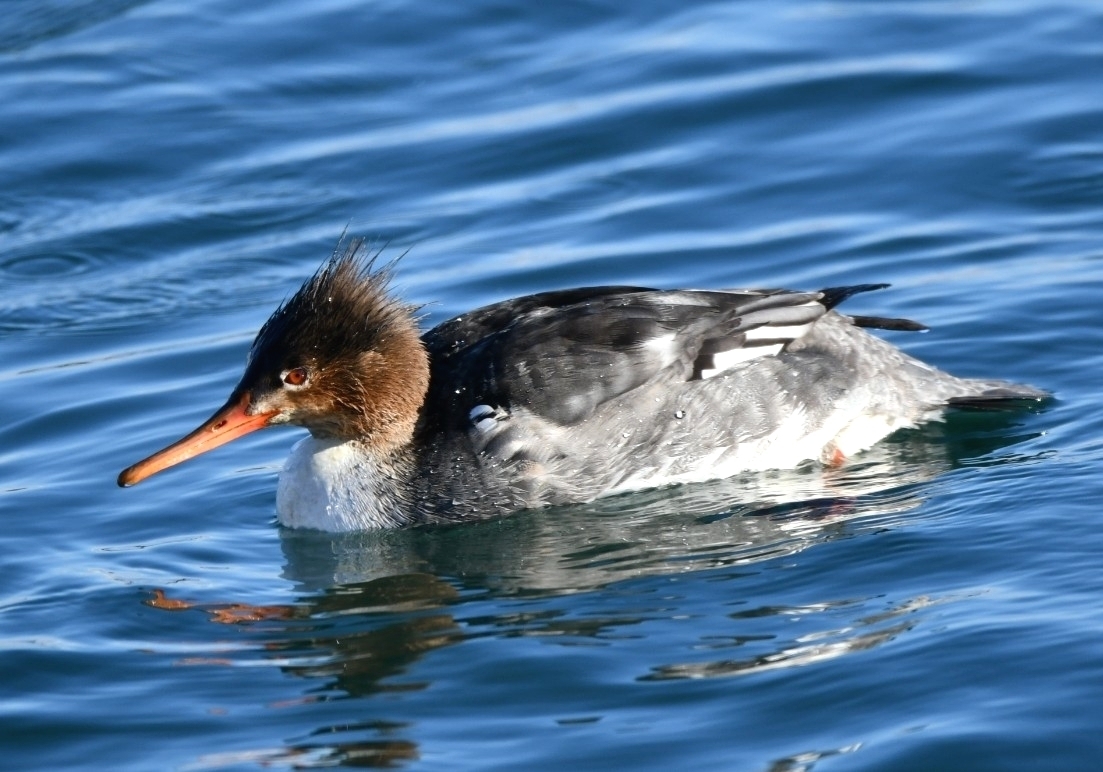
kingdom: Animalia
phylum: Chordata
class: Aves
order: Anseriformes
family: Anatidae
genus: Mergus
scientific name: Mergus serrator
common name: Red-breasted merganser
